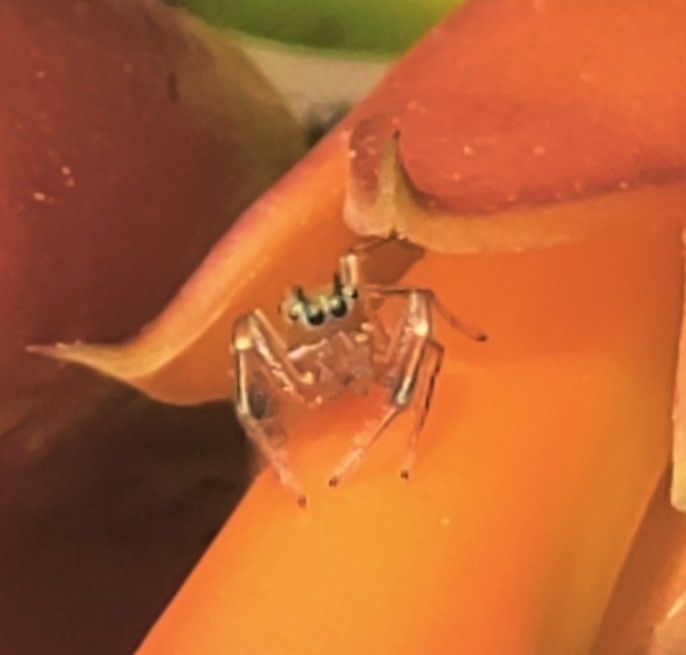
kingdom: Animalia
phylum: Arthropoda
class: Arachnida
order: Araneae
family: Salticidae
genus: Tutelina
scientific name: Tutelina elegans
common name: Thin-spined jumping spider
